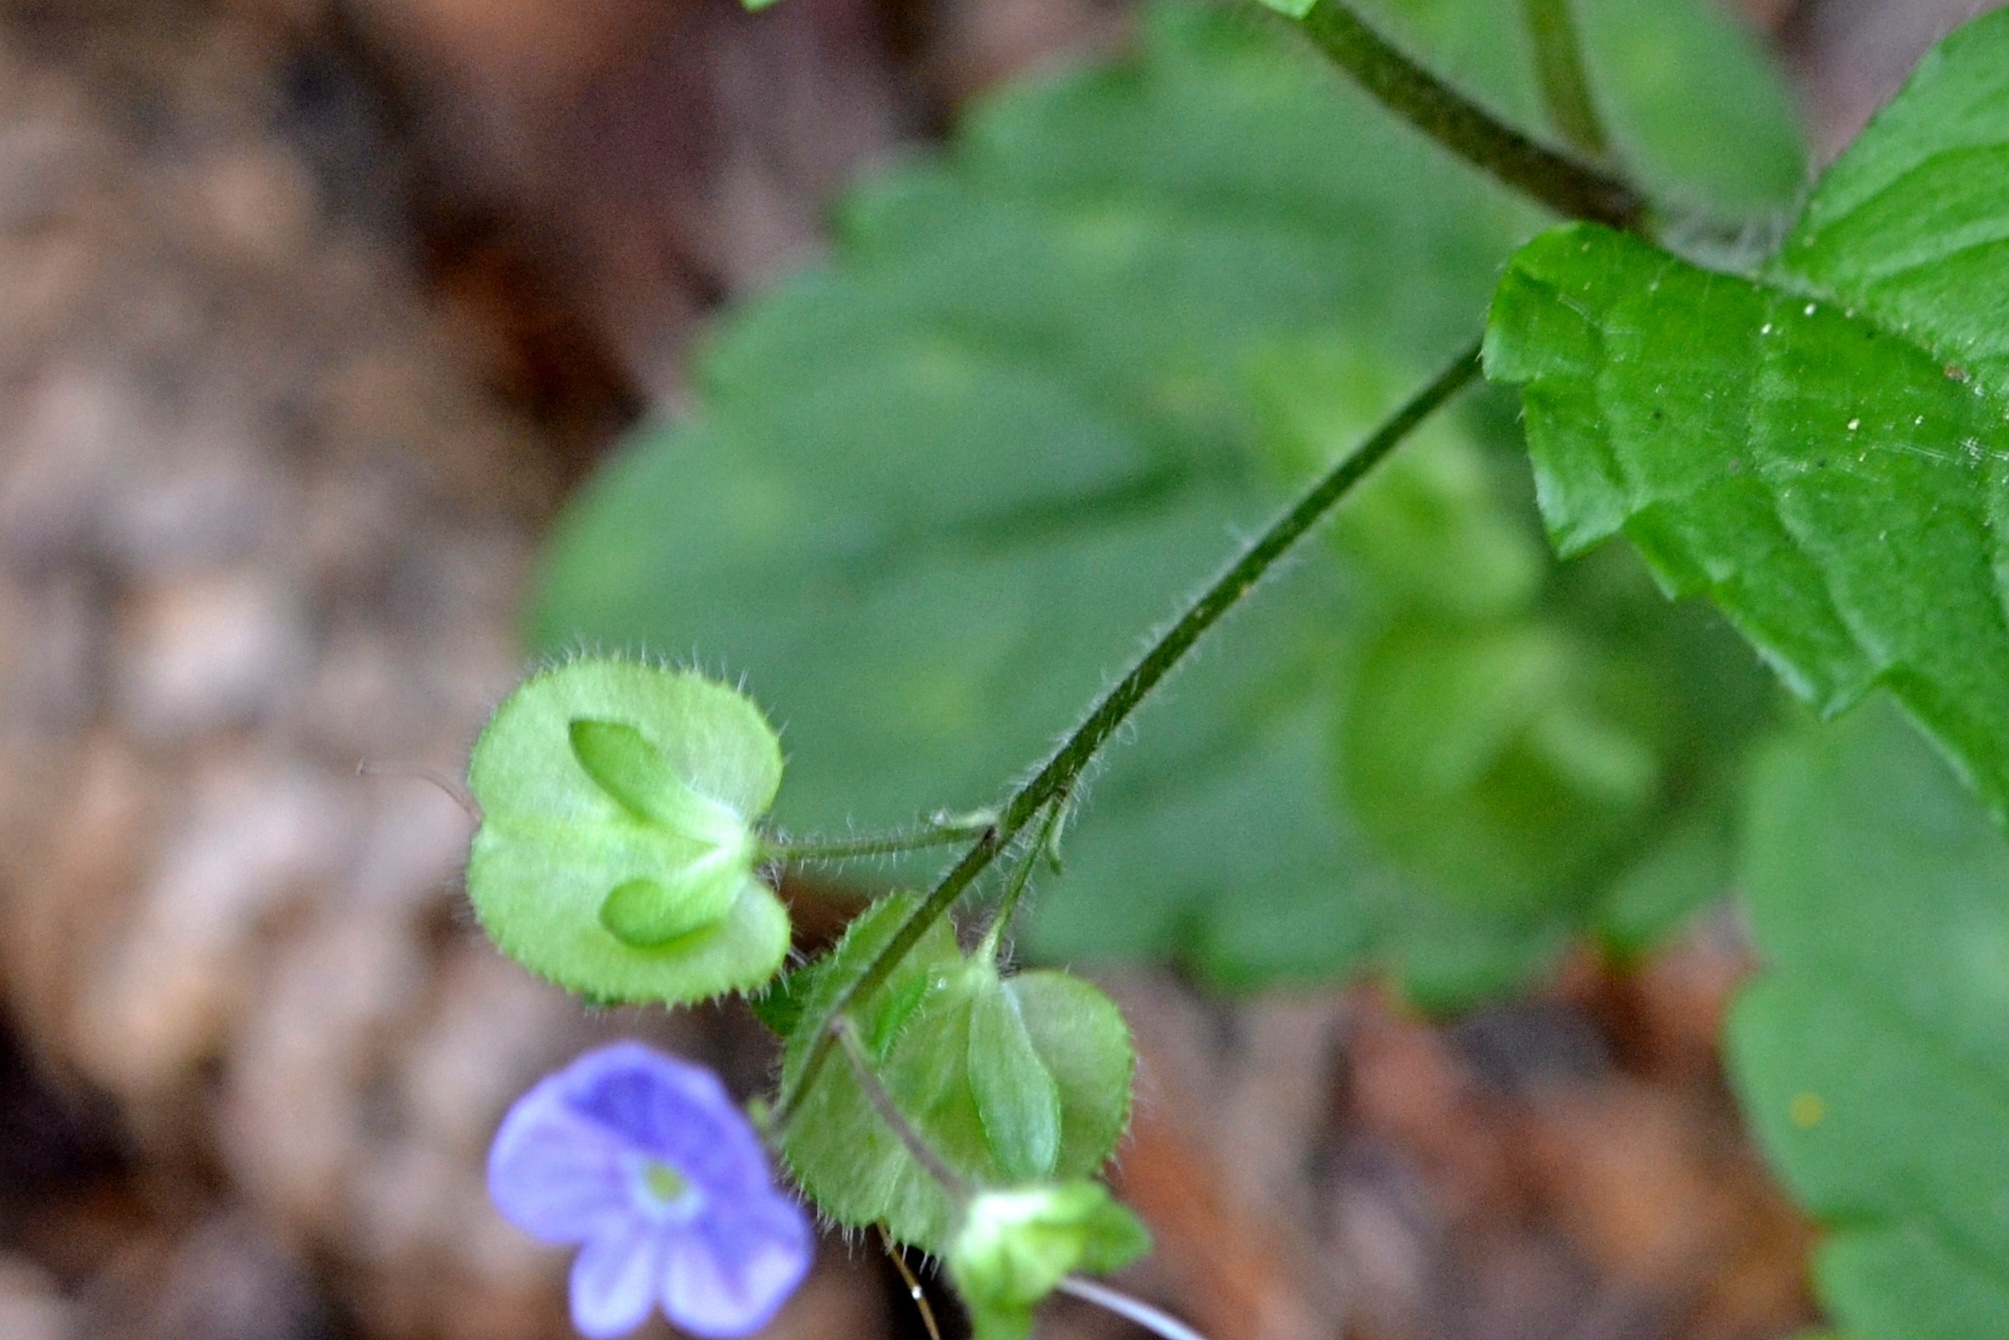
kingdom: Plantae
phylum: Tracheophyta
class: Magnoliopsida
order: Lamiales
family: Plantaginaceae
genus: Veronica
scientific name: Veronica montana
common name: Wood speedwell
